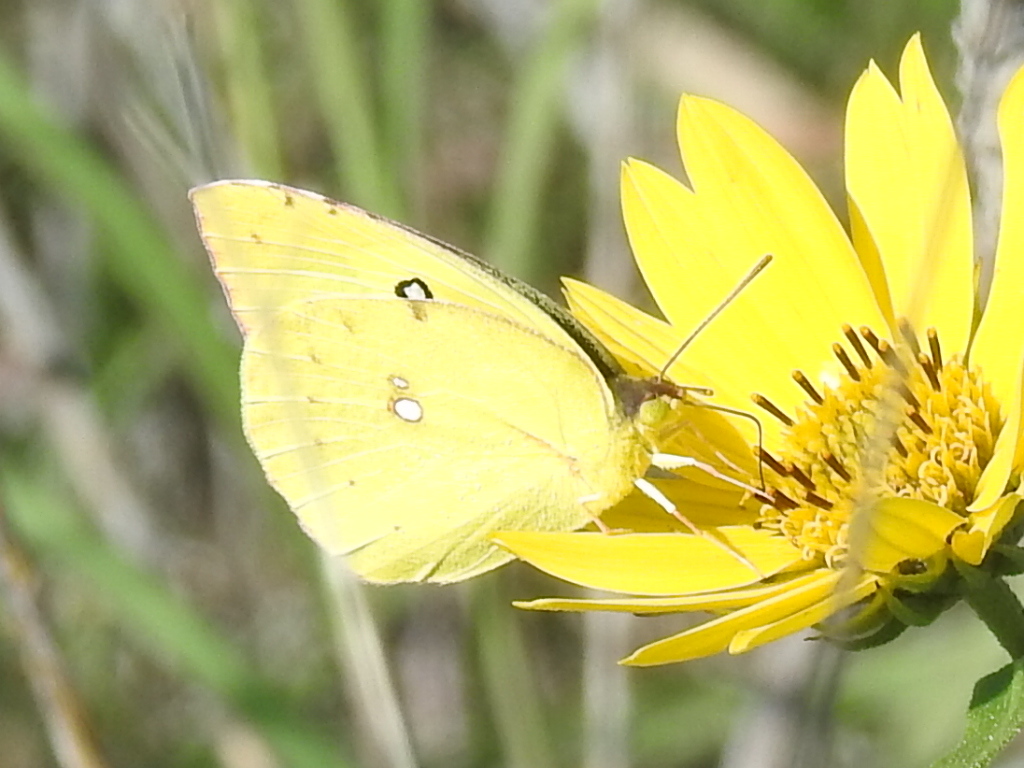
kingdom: Animalia
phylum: Arthropoda
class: Insecta
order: Lepidoptera
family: Pieridae
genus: Zerene
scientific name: Zerene cesonia
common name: Southern dogface
